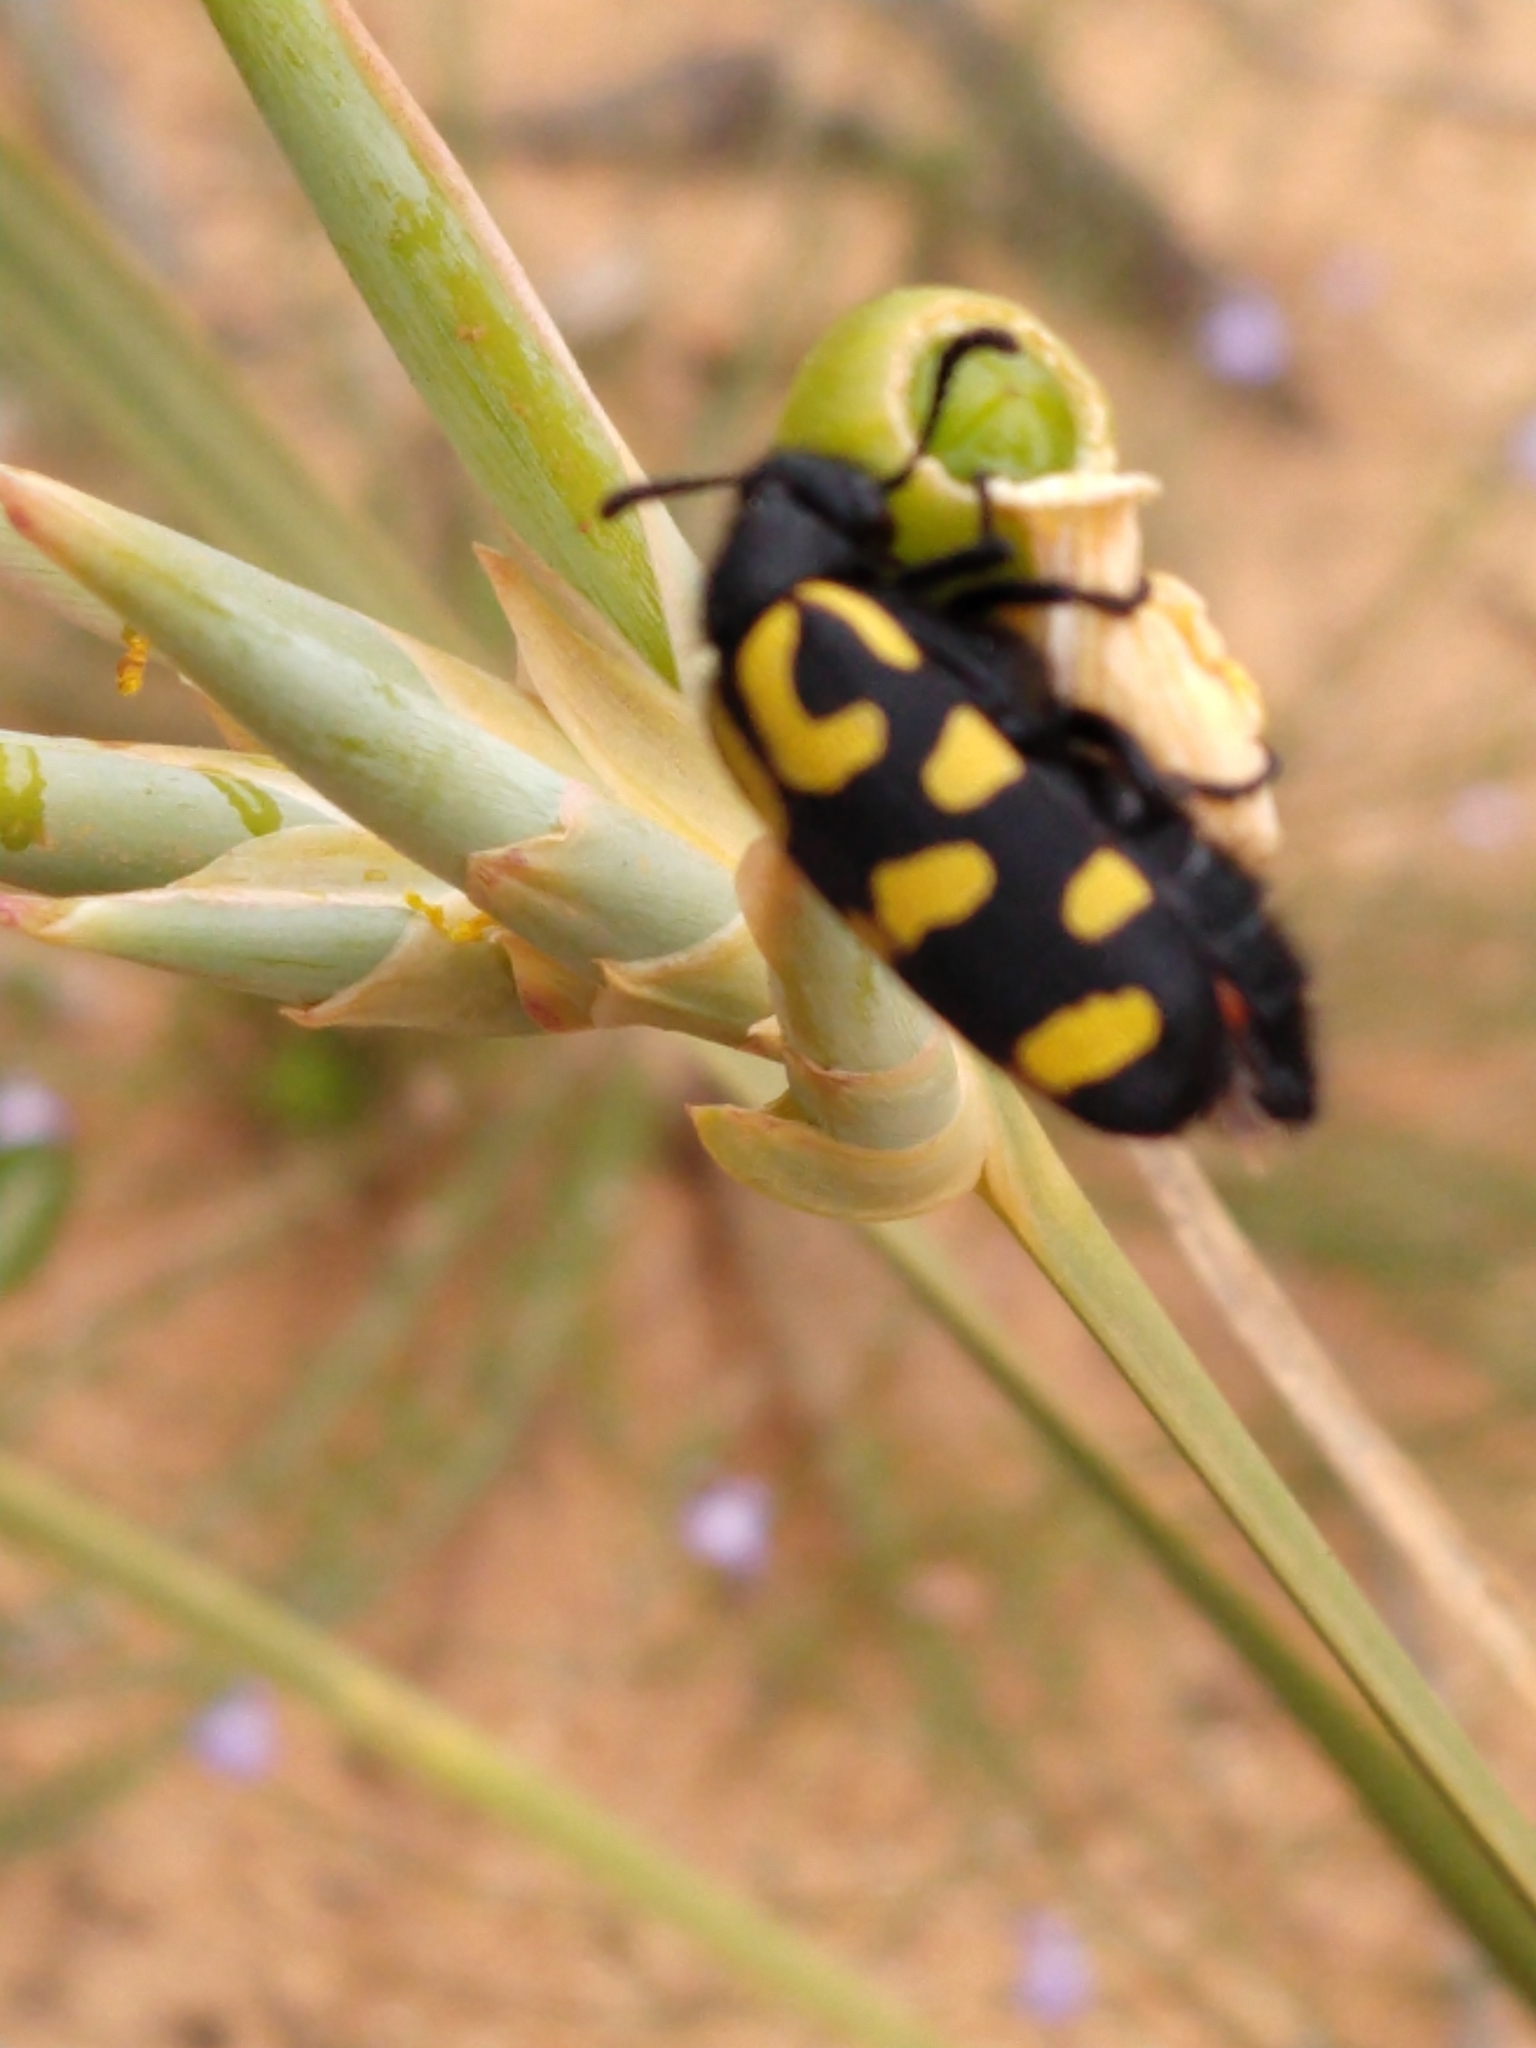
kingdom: Animalia
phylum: Arthropoda
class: Insecta
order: Coleoptera
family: Meloidae
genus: Ceroctis
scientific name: Ceroctis capensis
